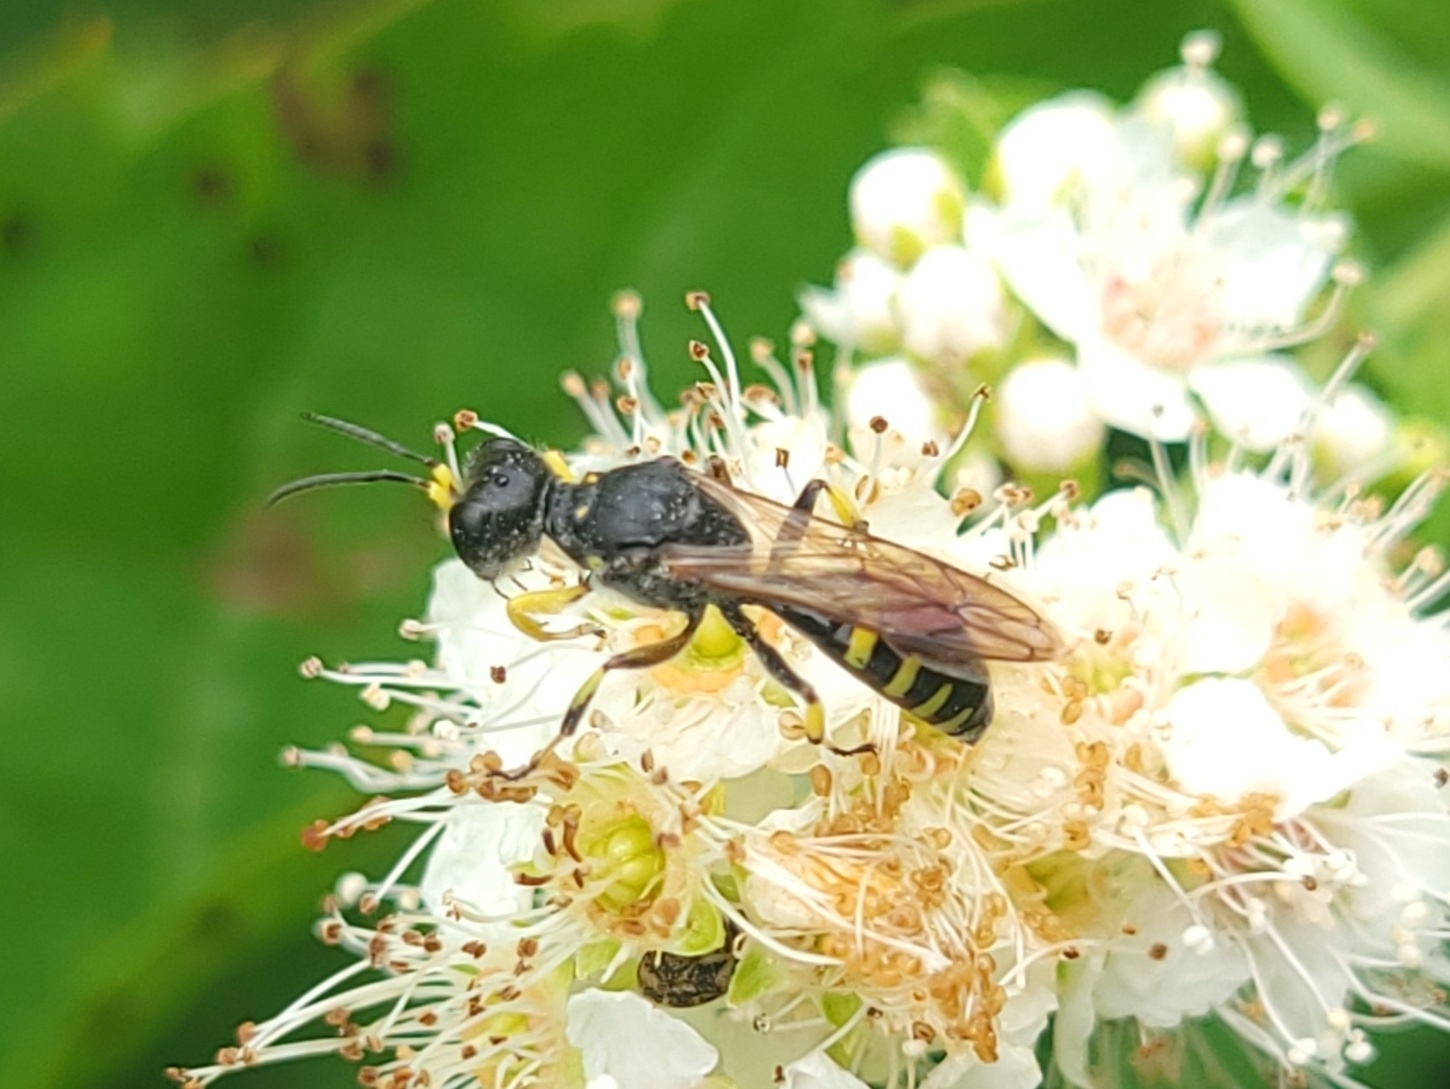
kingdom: Animalia
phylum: Arthropoda
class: Insecta
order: Hymenoptera
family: Crabronidae
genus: Ectemnius
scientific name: Ectemnius maculosus
